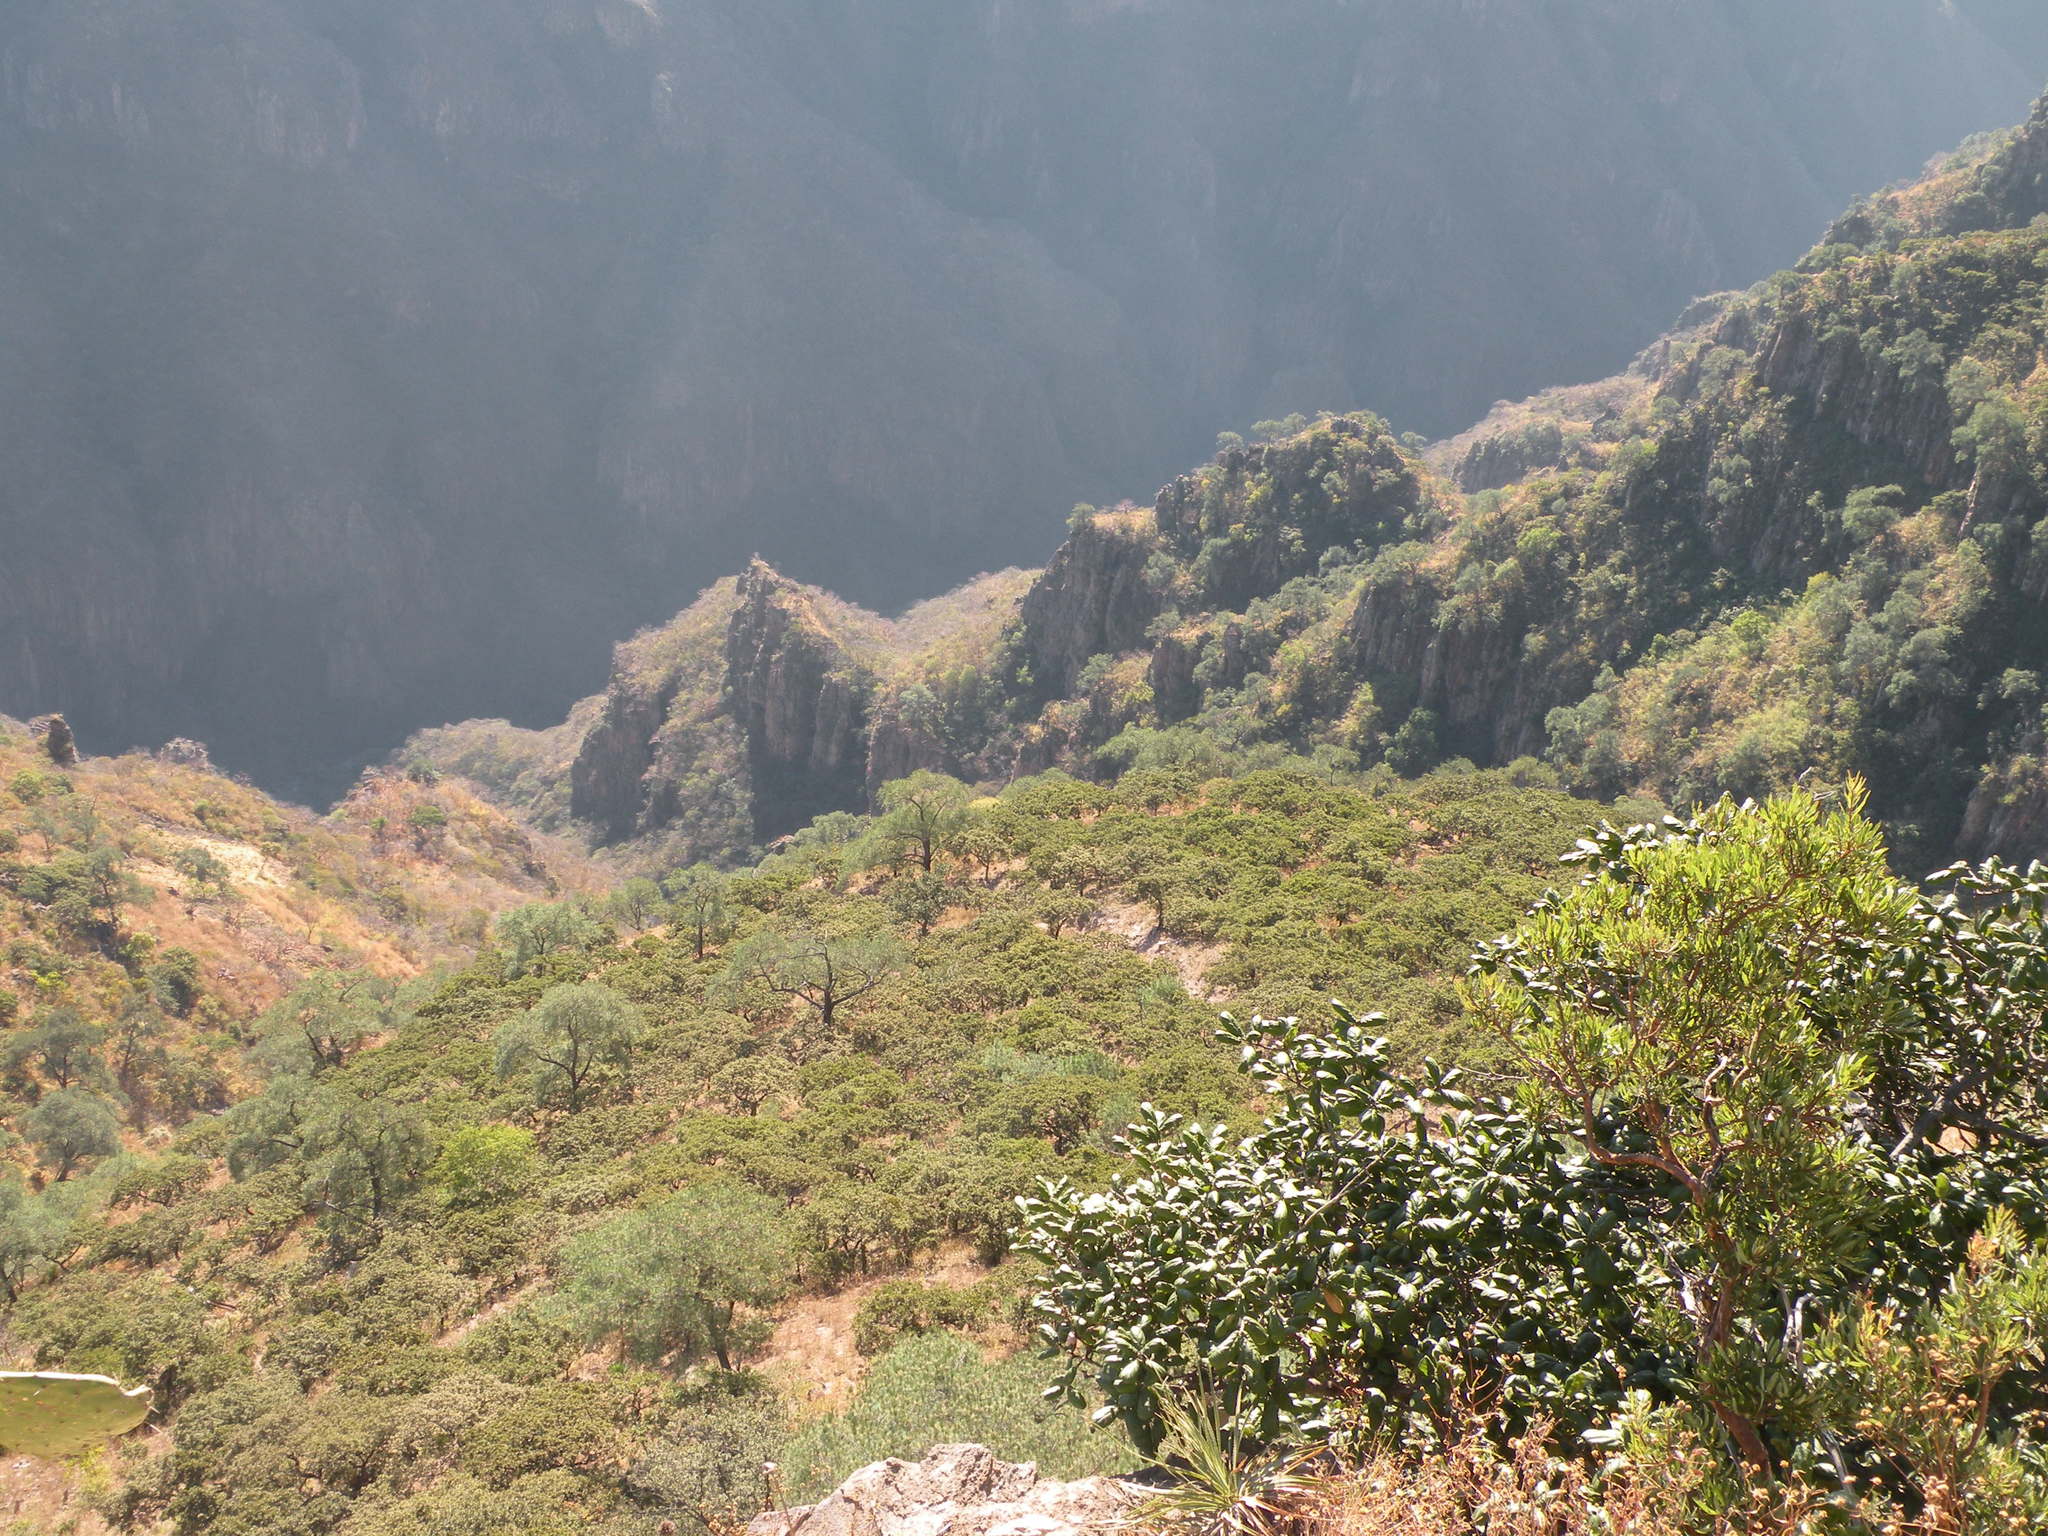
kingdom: Plantae
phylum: Tracheophyta
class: Pinopsida
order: Pinales
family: Pinaceae
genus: Pinus
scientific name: Pinus maximartinezii
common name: Big-cone pinyon
